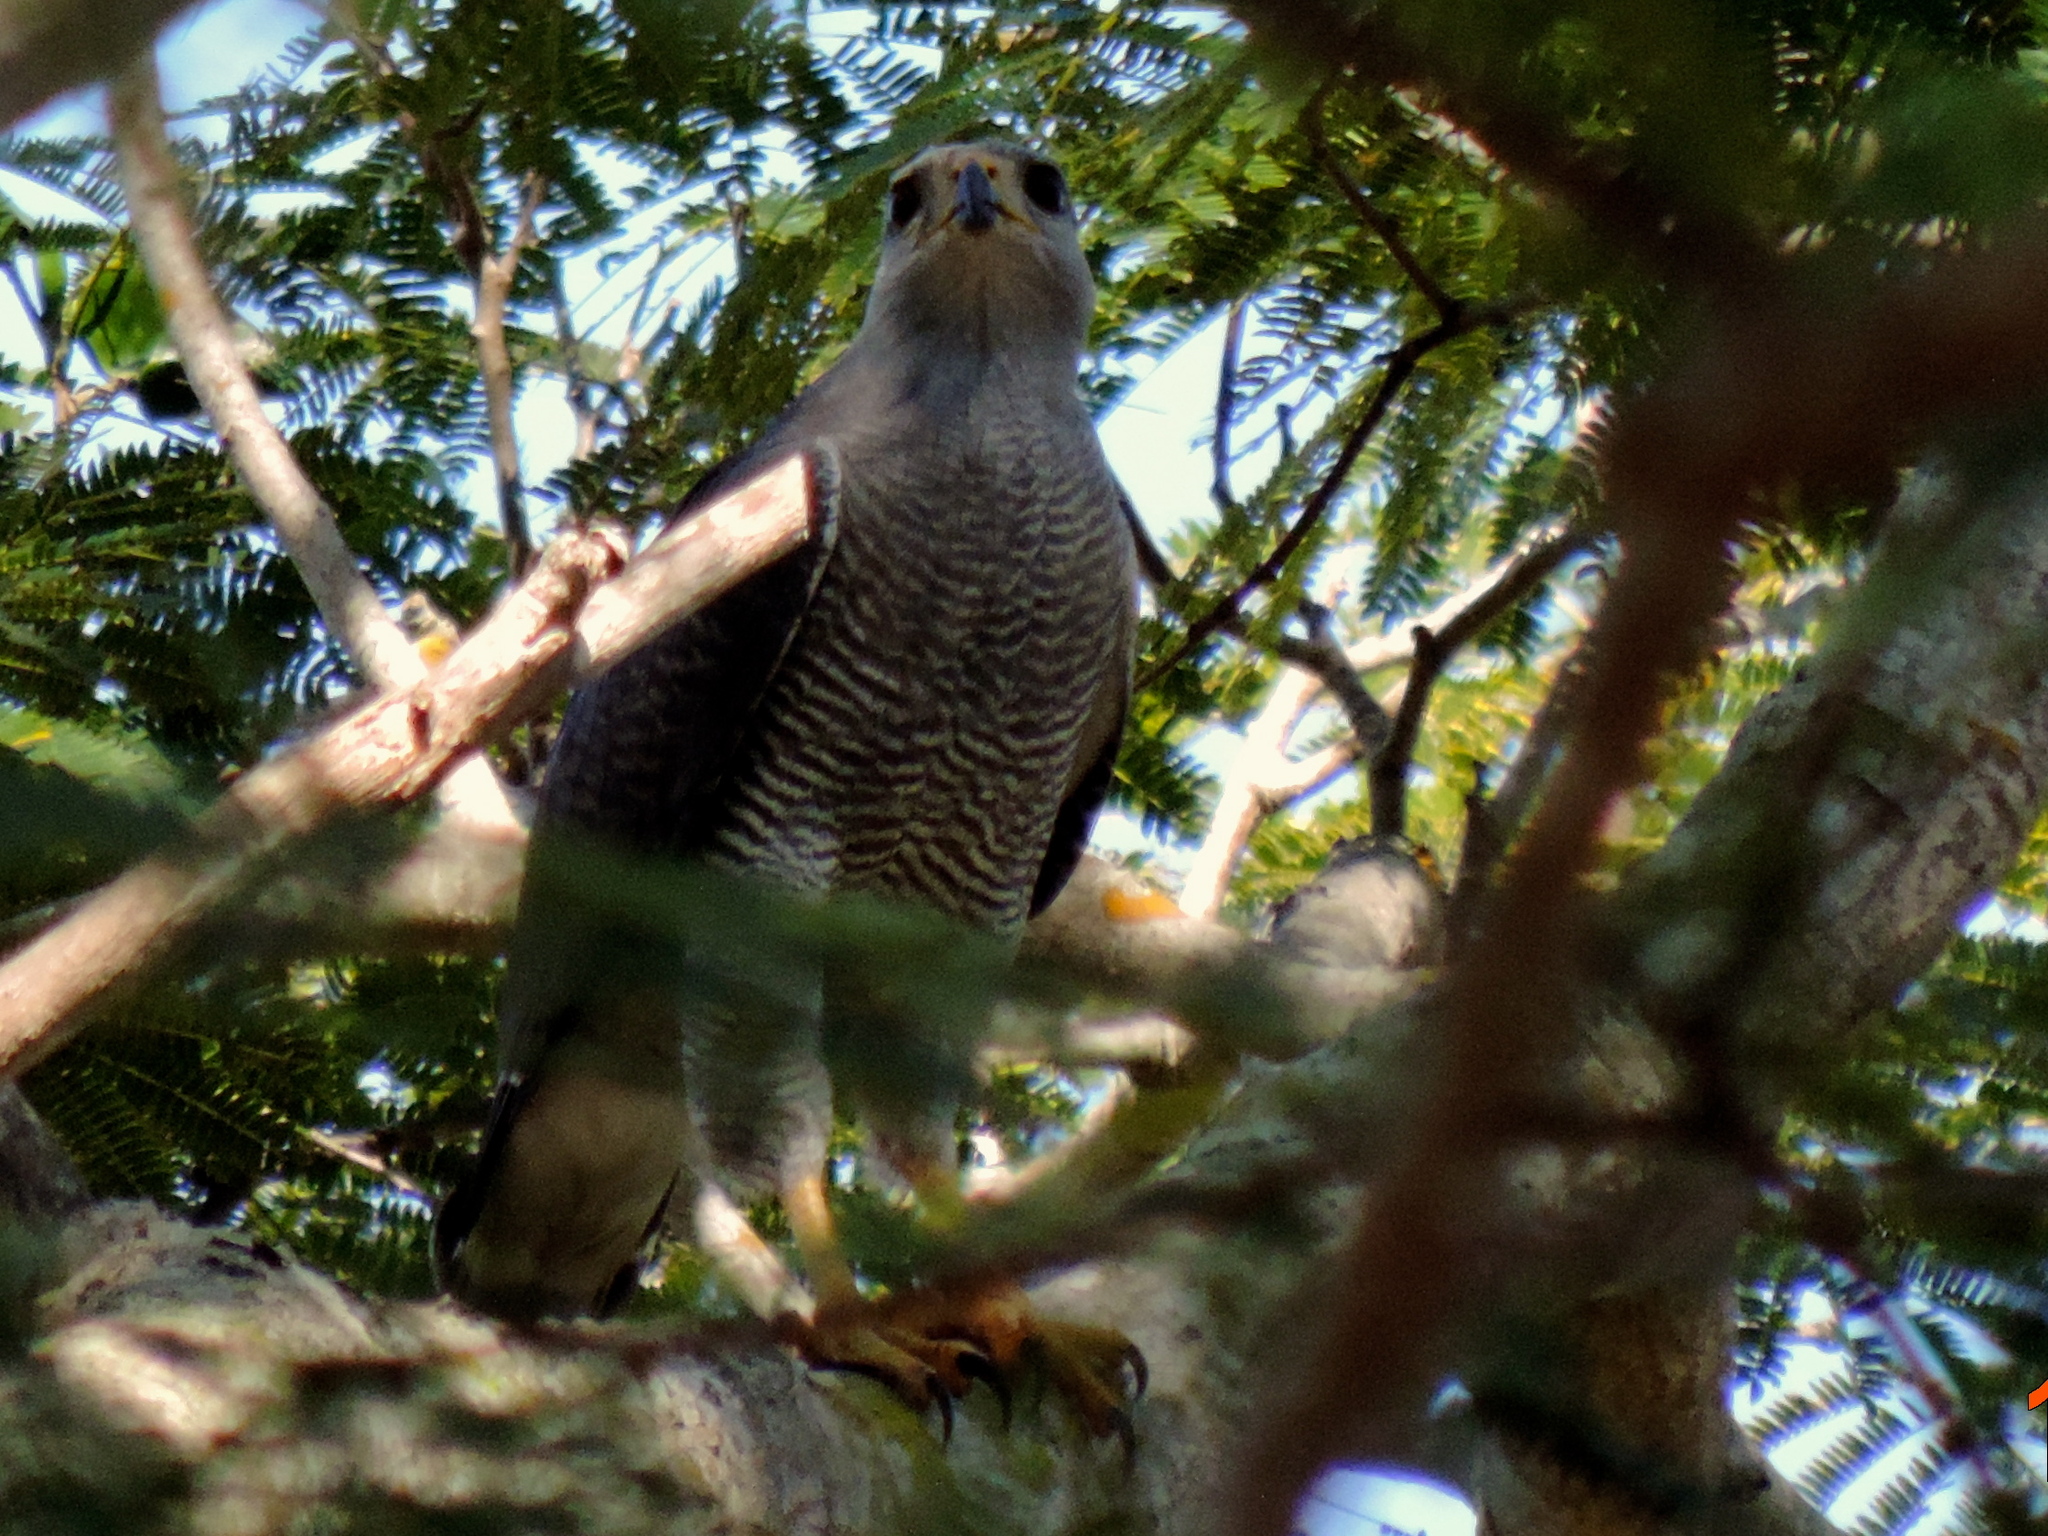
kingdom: Animalia
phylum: Chordata
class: Aves
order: Accipitriformes
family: Accipitridae
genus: Buteo
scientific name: Buteo nitidus
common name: Grey-lined hawk
